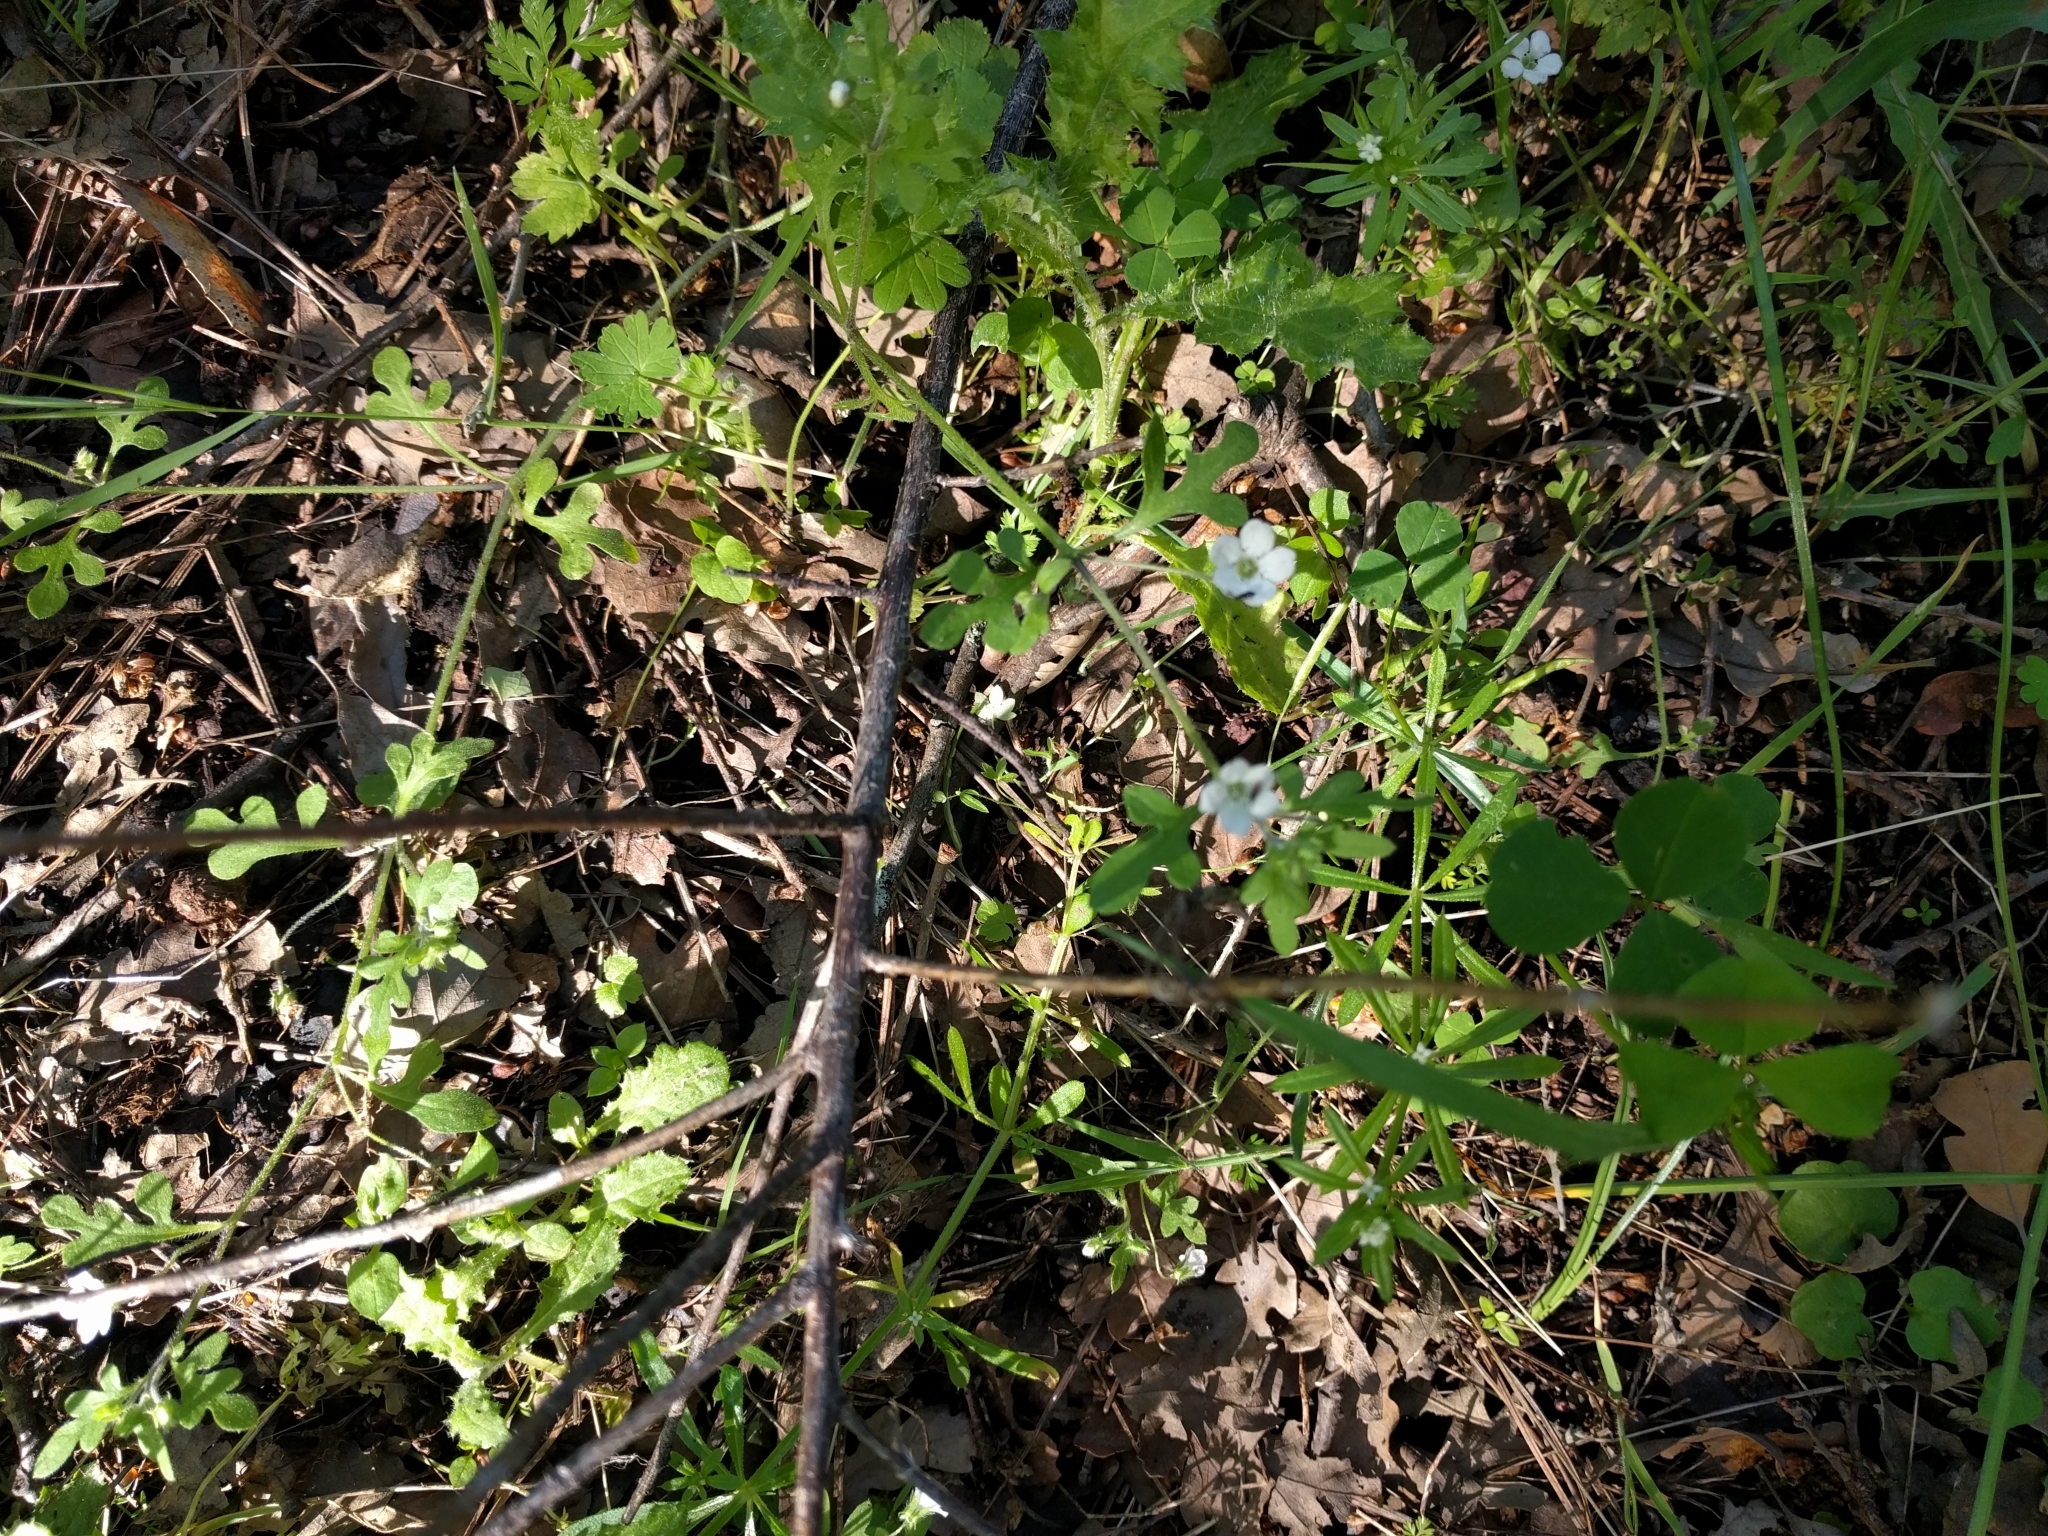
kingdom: Plantae
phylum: Tracheophyta
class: Magnoliopsida
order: Boraginales
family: Hydrophyllaceae
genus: Nemophila
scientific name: Nemophila heterophylla
